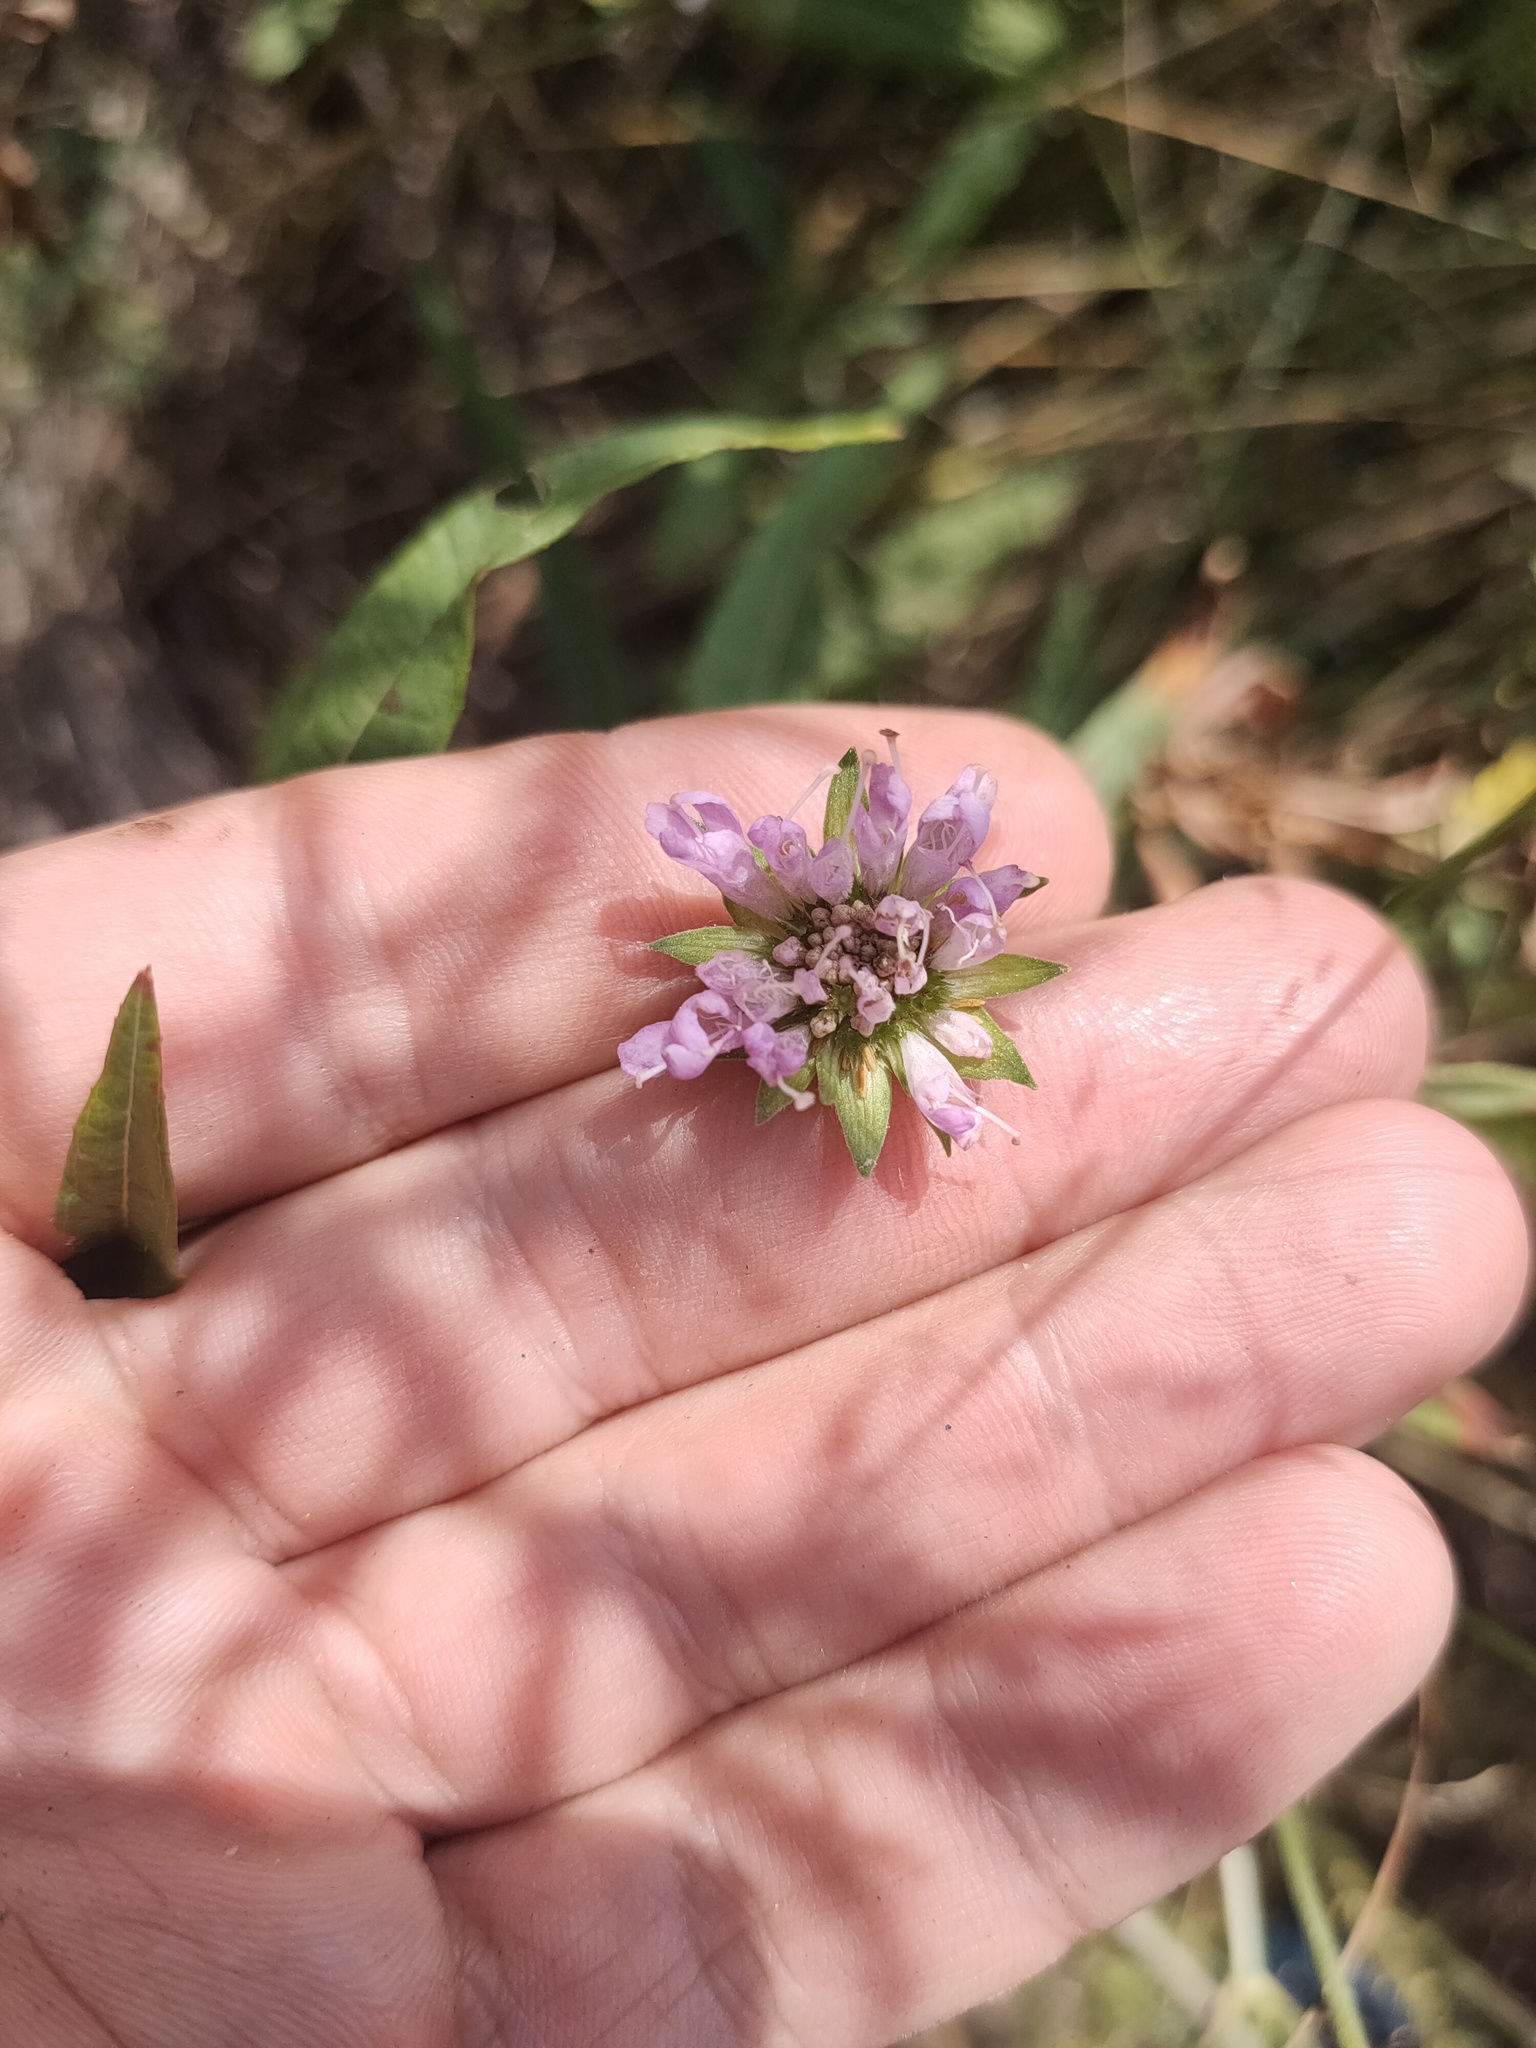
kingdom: Plantae
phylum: Tracheophyta
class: Magnoliopsida
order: Dipsacales
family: Caprifoliaceae
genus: Knautia
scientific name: Knautia arvensis
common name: Field scabiosa
